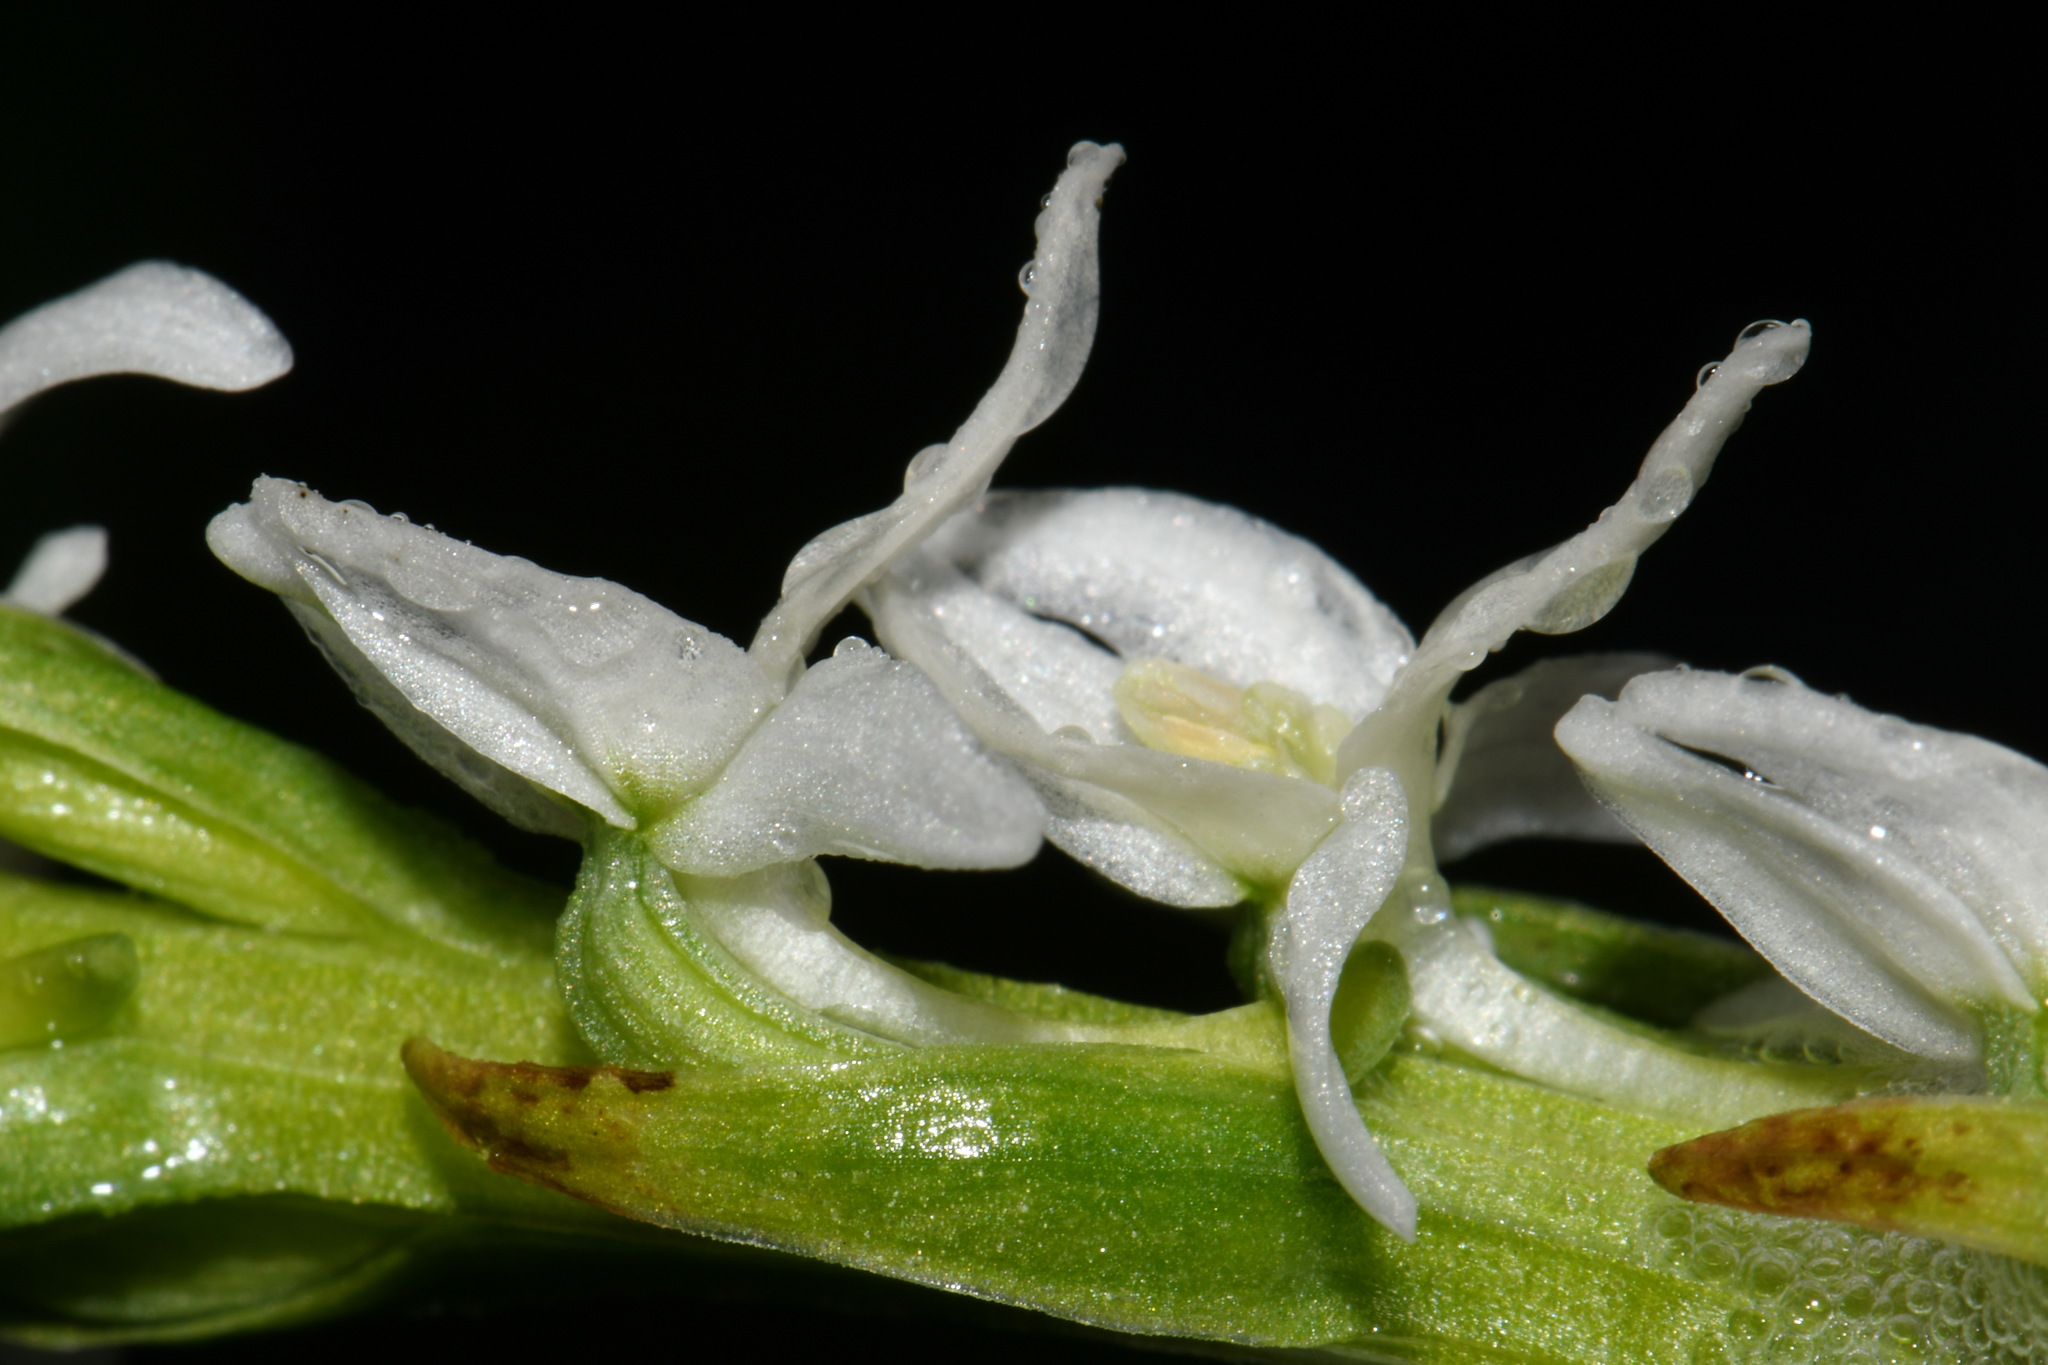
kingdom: Plantae
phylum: Tracheophyta
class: Liliopsida
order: Asparagales
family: Orchidaceae
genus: Platanthera
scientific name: Platanthera dilatata
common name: Bog candles
